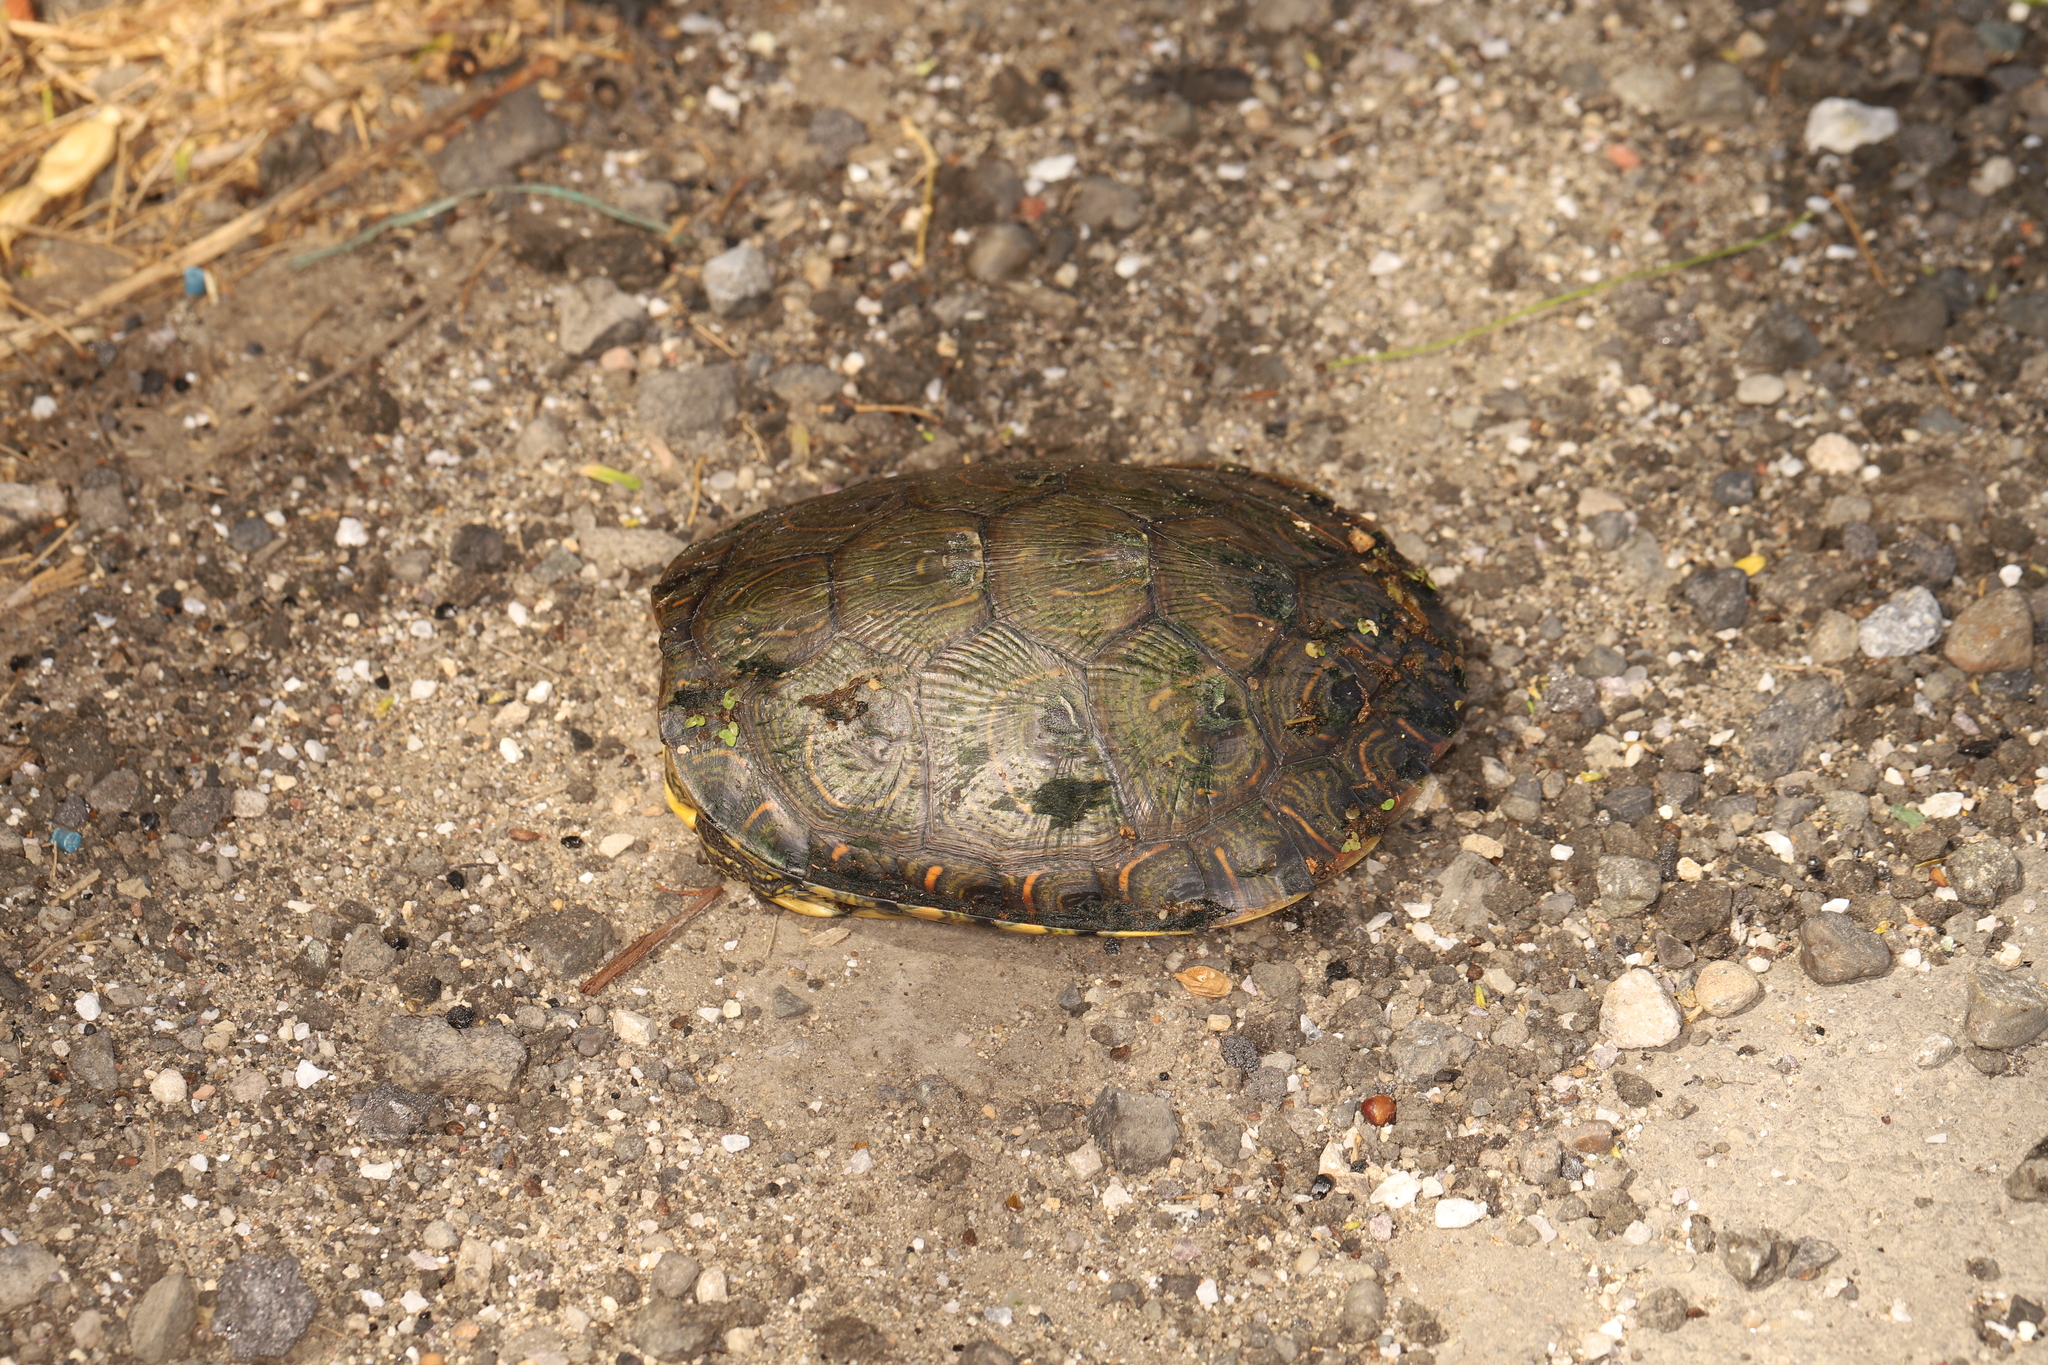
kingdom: Animalia
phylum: Chordata
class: Testudines
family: Emydidae
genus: Trachemys
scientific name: Trachemys callirostris
